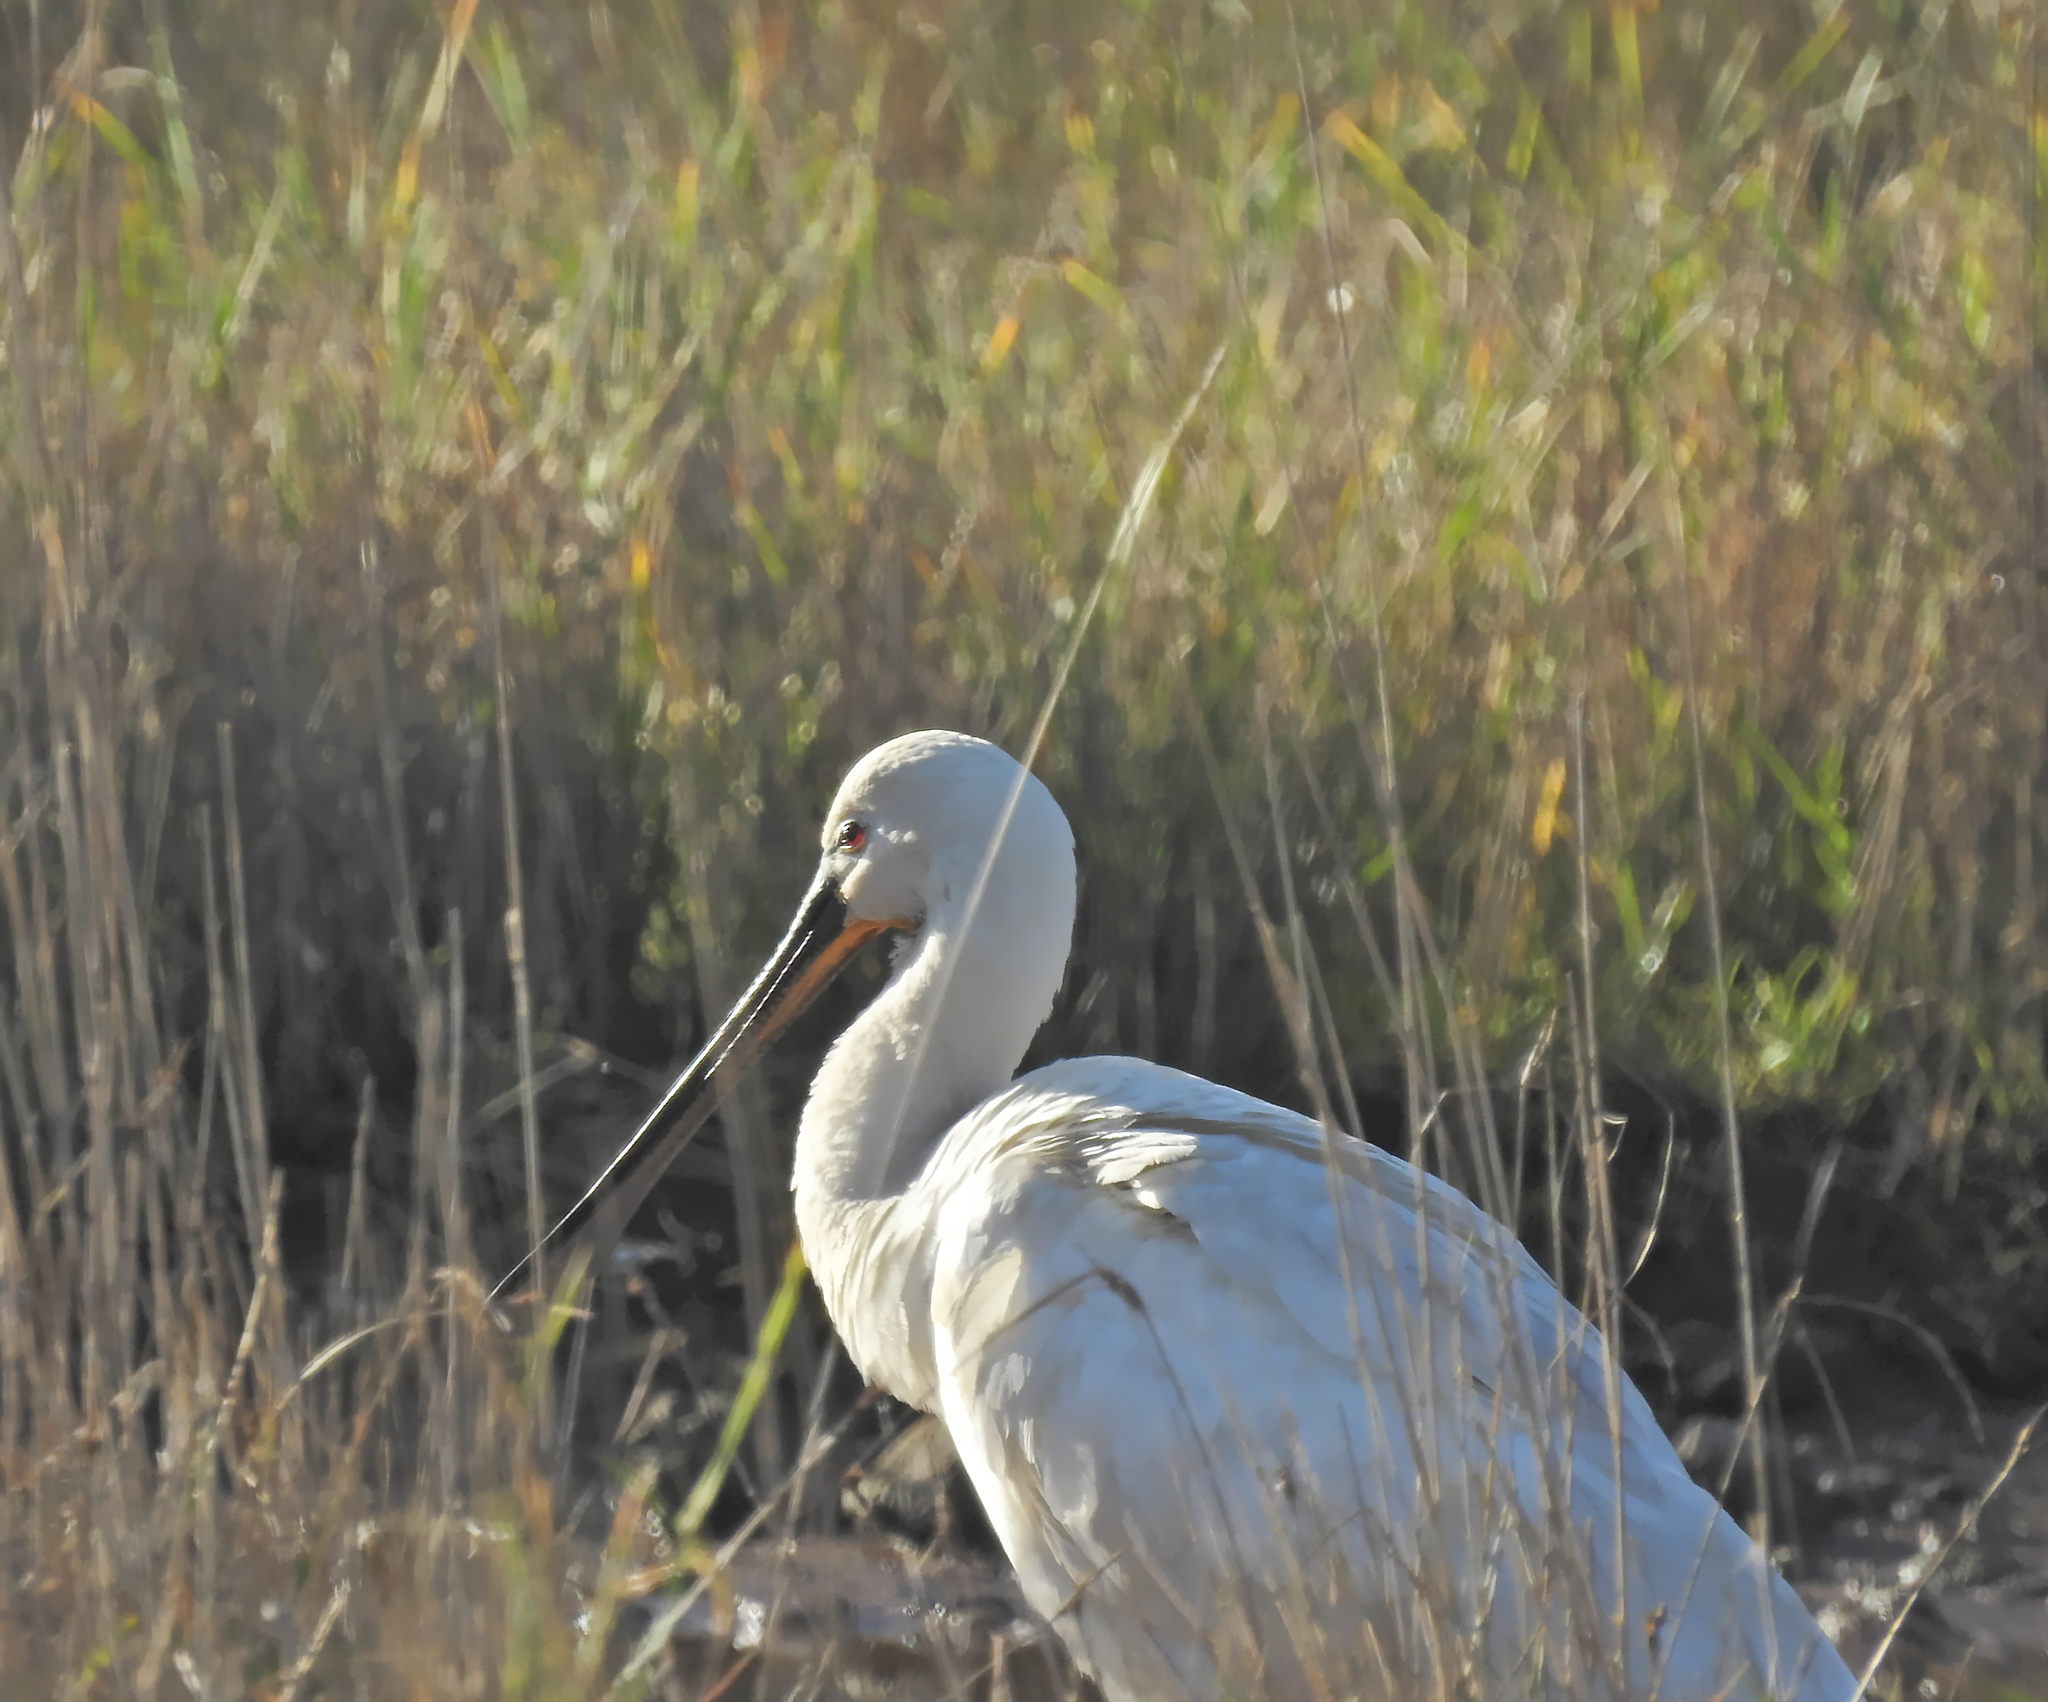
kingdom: Animalia
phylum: Chordata
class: Aves
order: Pelecaniformes
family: Threskiornithidae
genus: Platalea
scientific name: Platalea leucorodia
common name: Eurasian spoonbill
